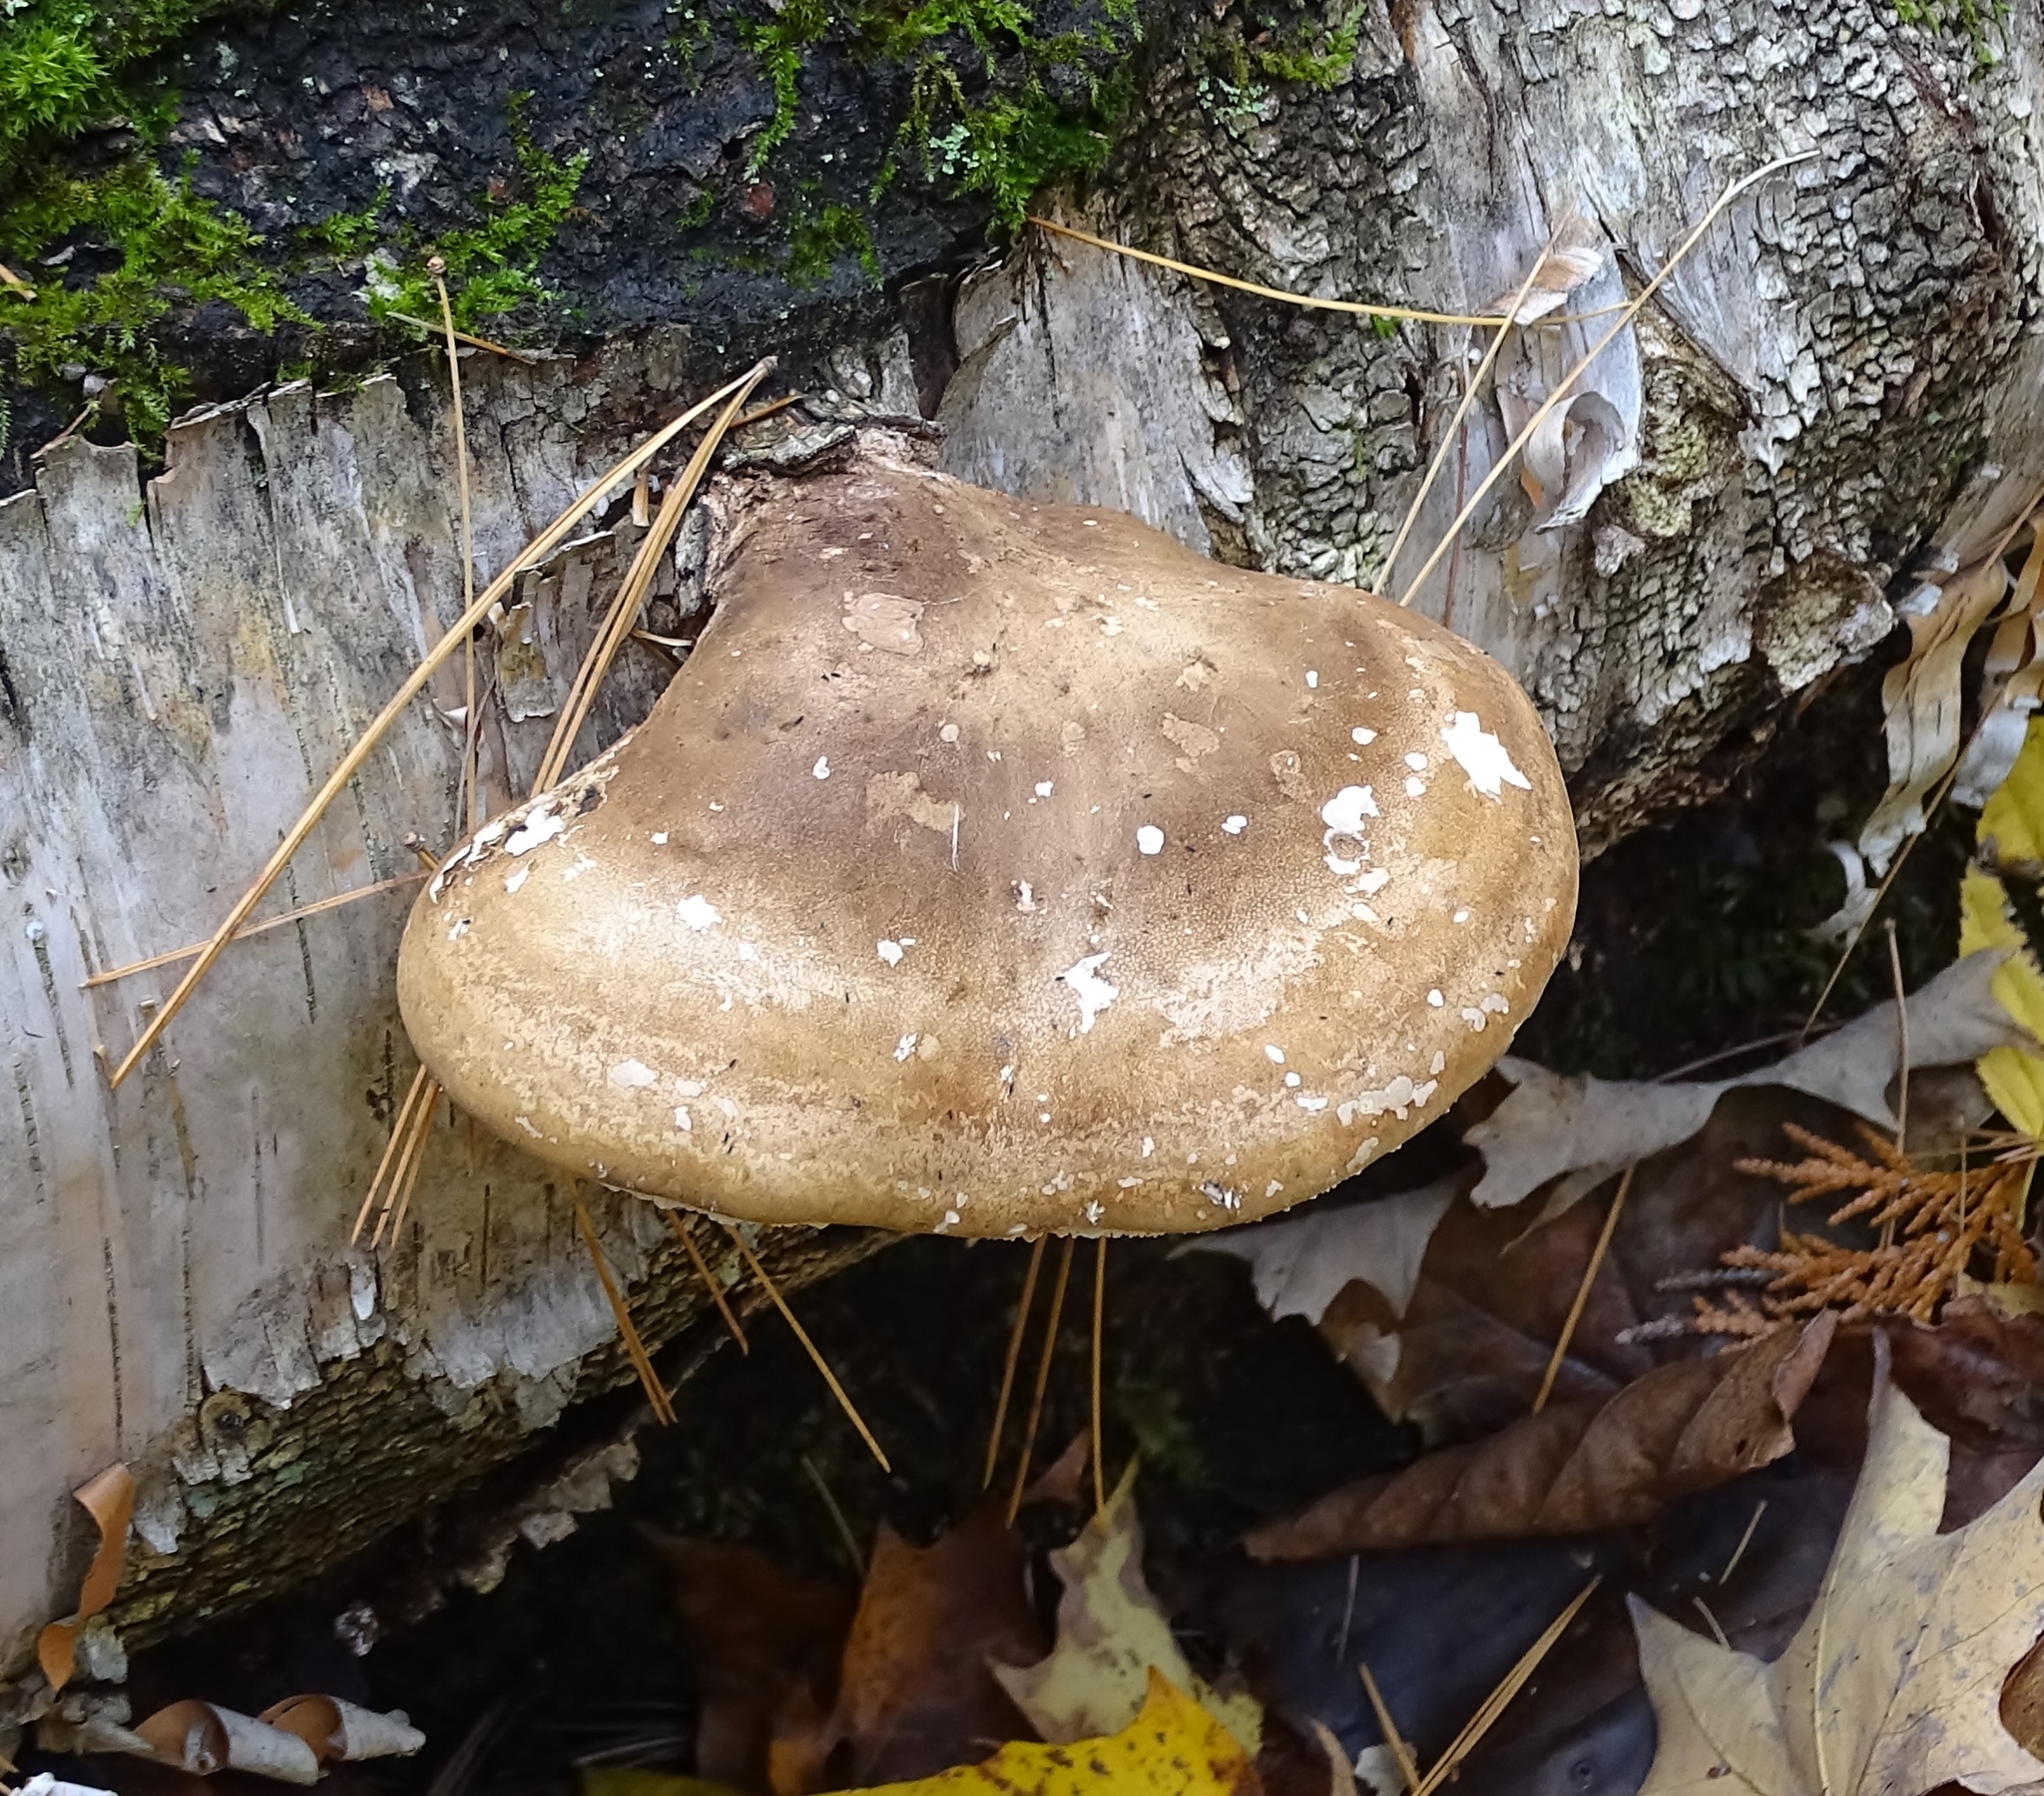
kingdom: Fungi
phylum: Basidiomycota
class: Agaricomycetes
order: Polyporales
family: Fomitopsidaceae
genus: Fomitopsis
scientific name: Fomitopsis betulina
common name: Birch polypore
